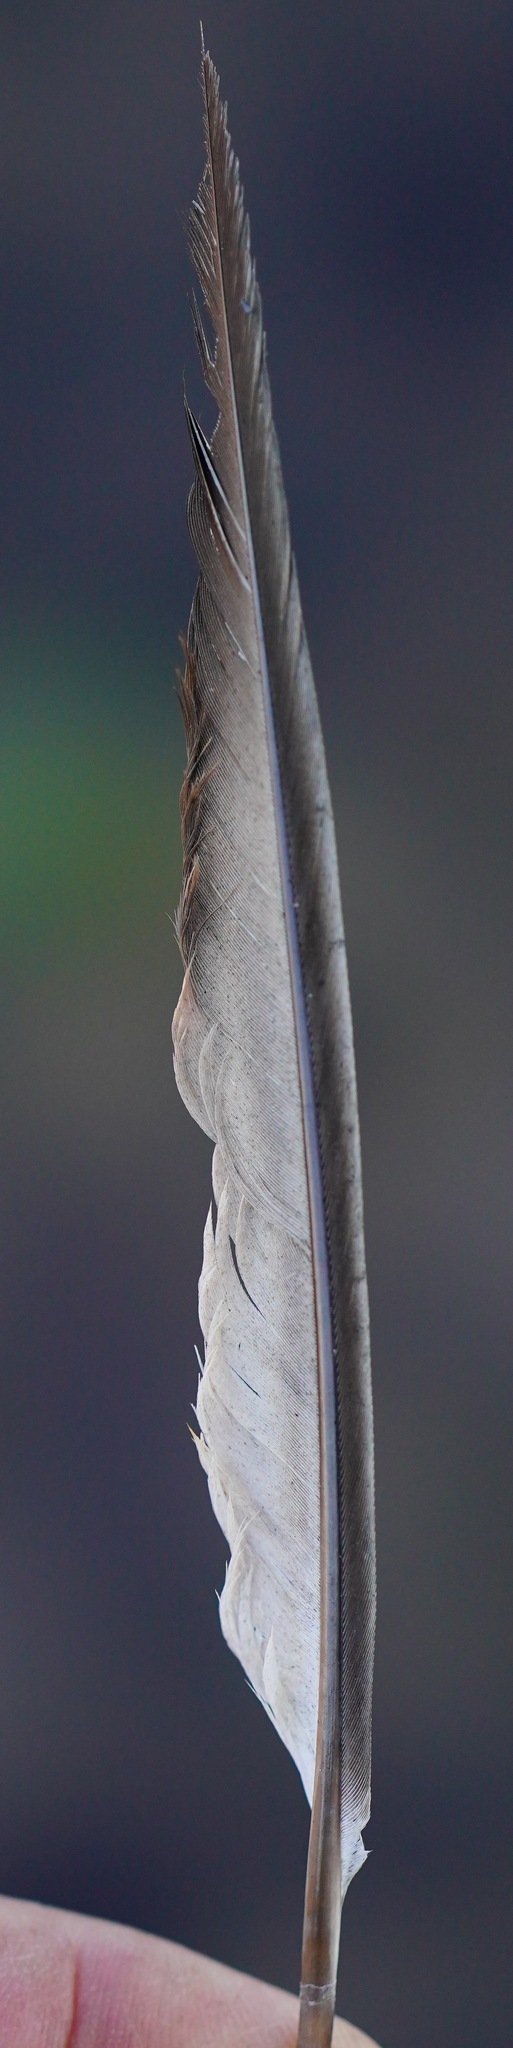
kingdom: Animalia
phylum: Chordata
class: Aves
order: Columbiformes
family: Columbidae
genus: Columba
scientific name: Columba livia
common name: Rock pigeon
